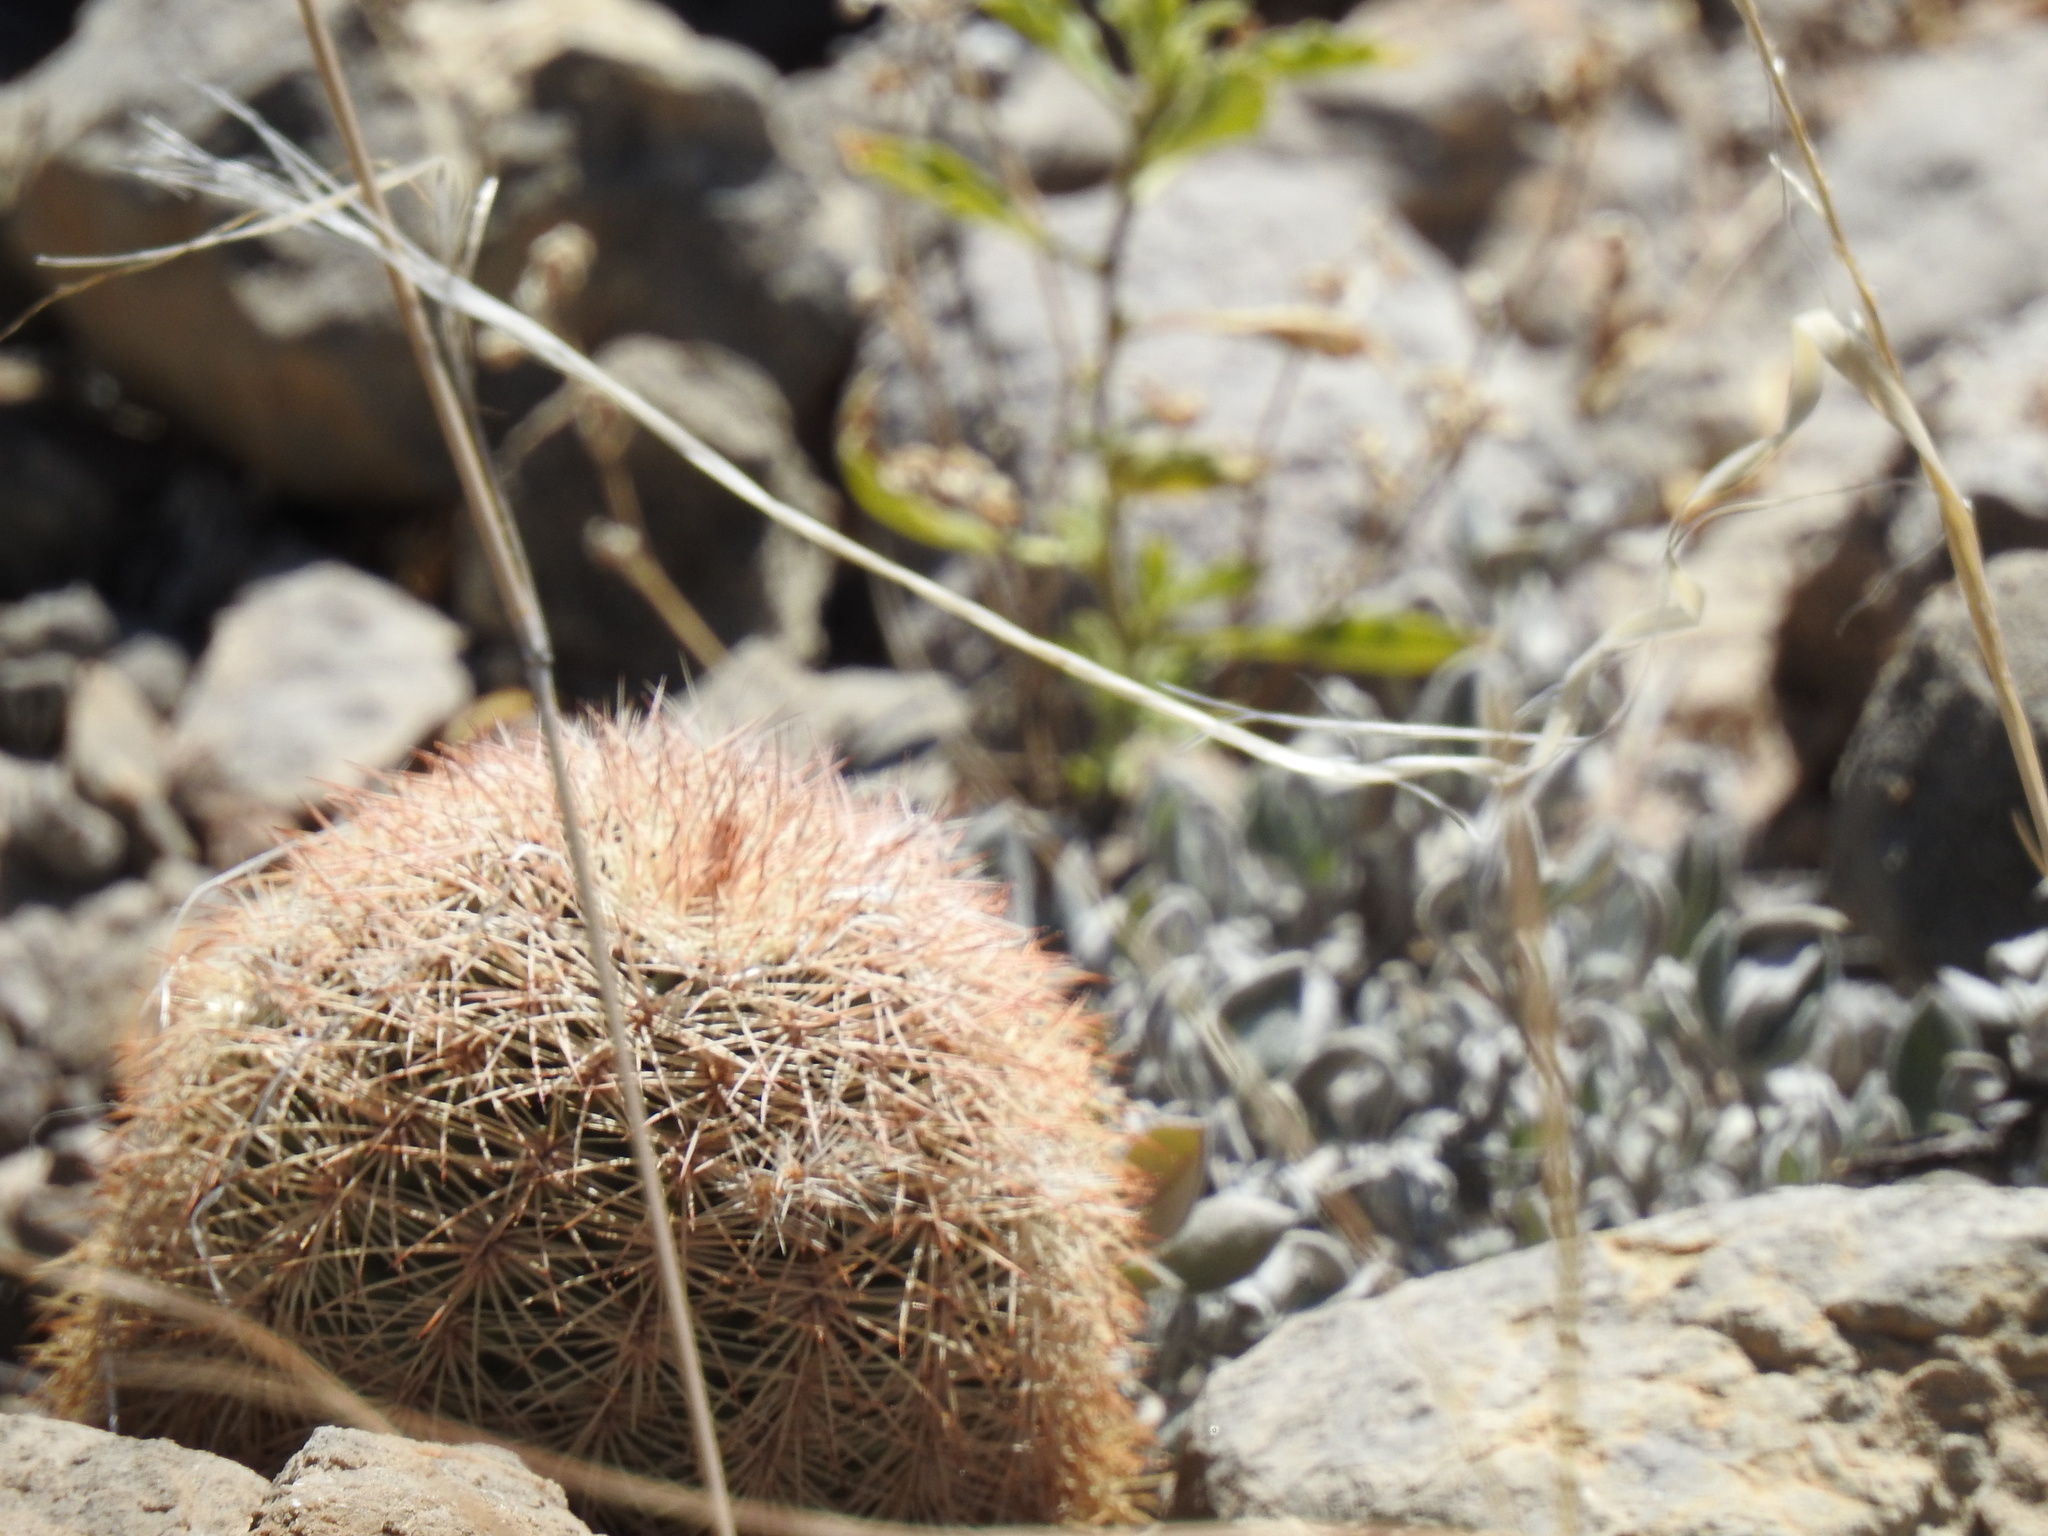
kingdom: Plantae
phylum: Tracheophyta
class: Magnoliopsida
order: Caryophyllales
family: Cactaceae
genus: Echinocereus
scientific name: Echinocereus dasyacanthus
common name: Spiny hedgehog cactus
